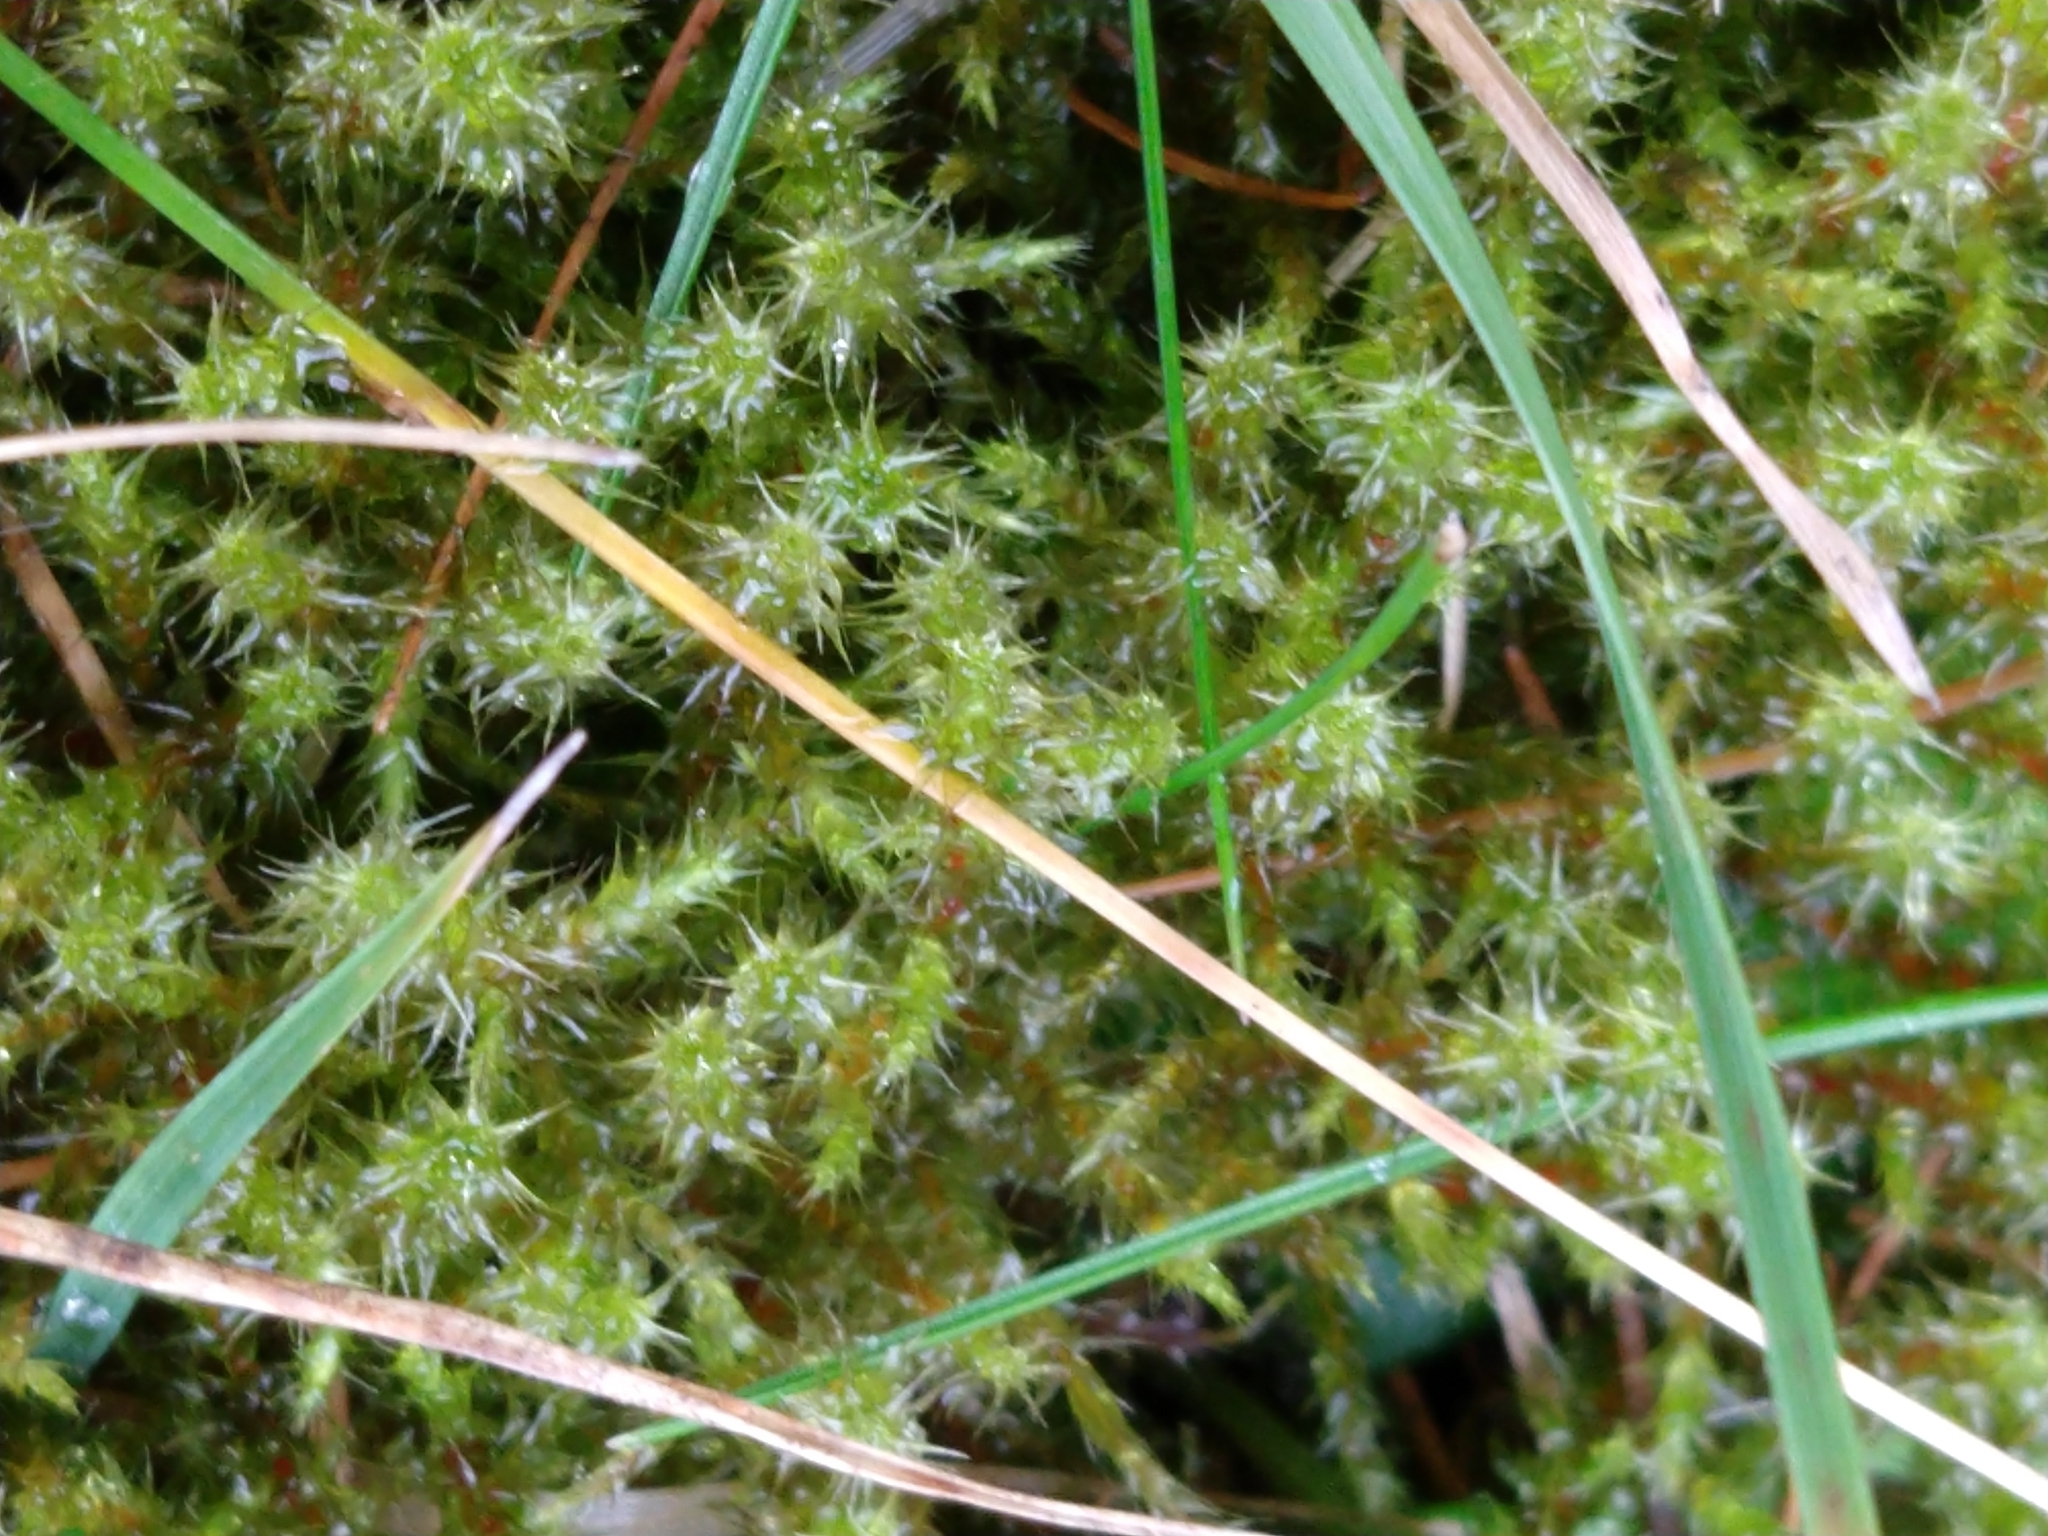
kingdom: Plantae
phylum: Bryophyta
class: Bryopsida
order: Hypnales
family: Hylocomiaceae
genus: Rhytidiadelphus
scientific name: Rhytidiadelphus squarrosus
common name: Springy turf-moss
